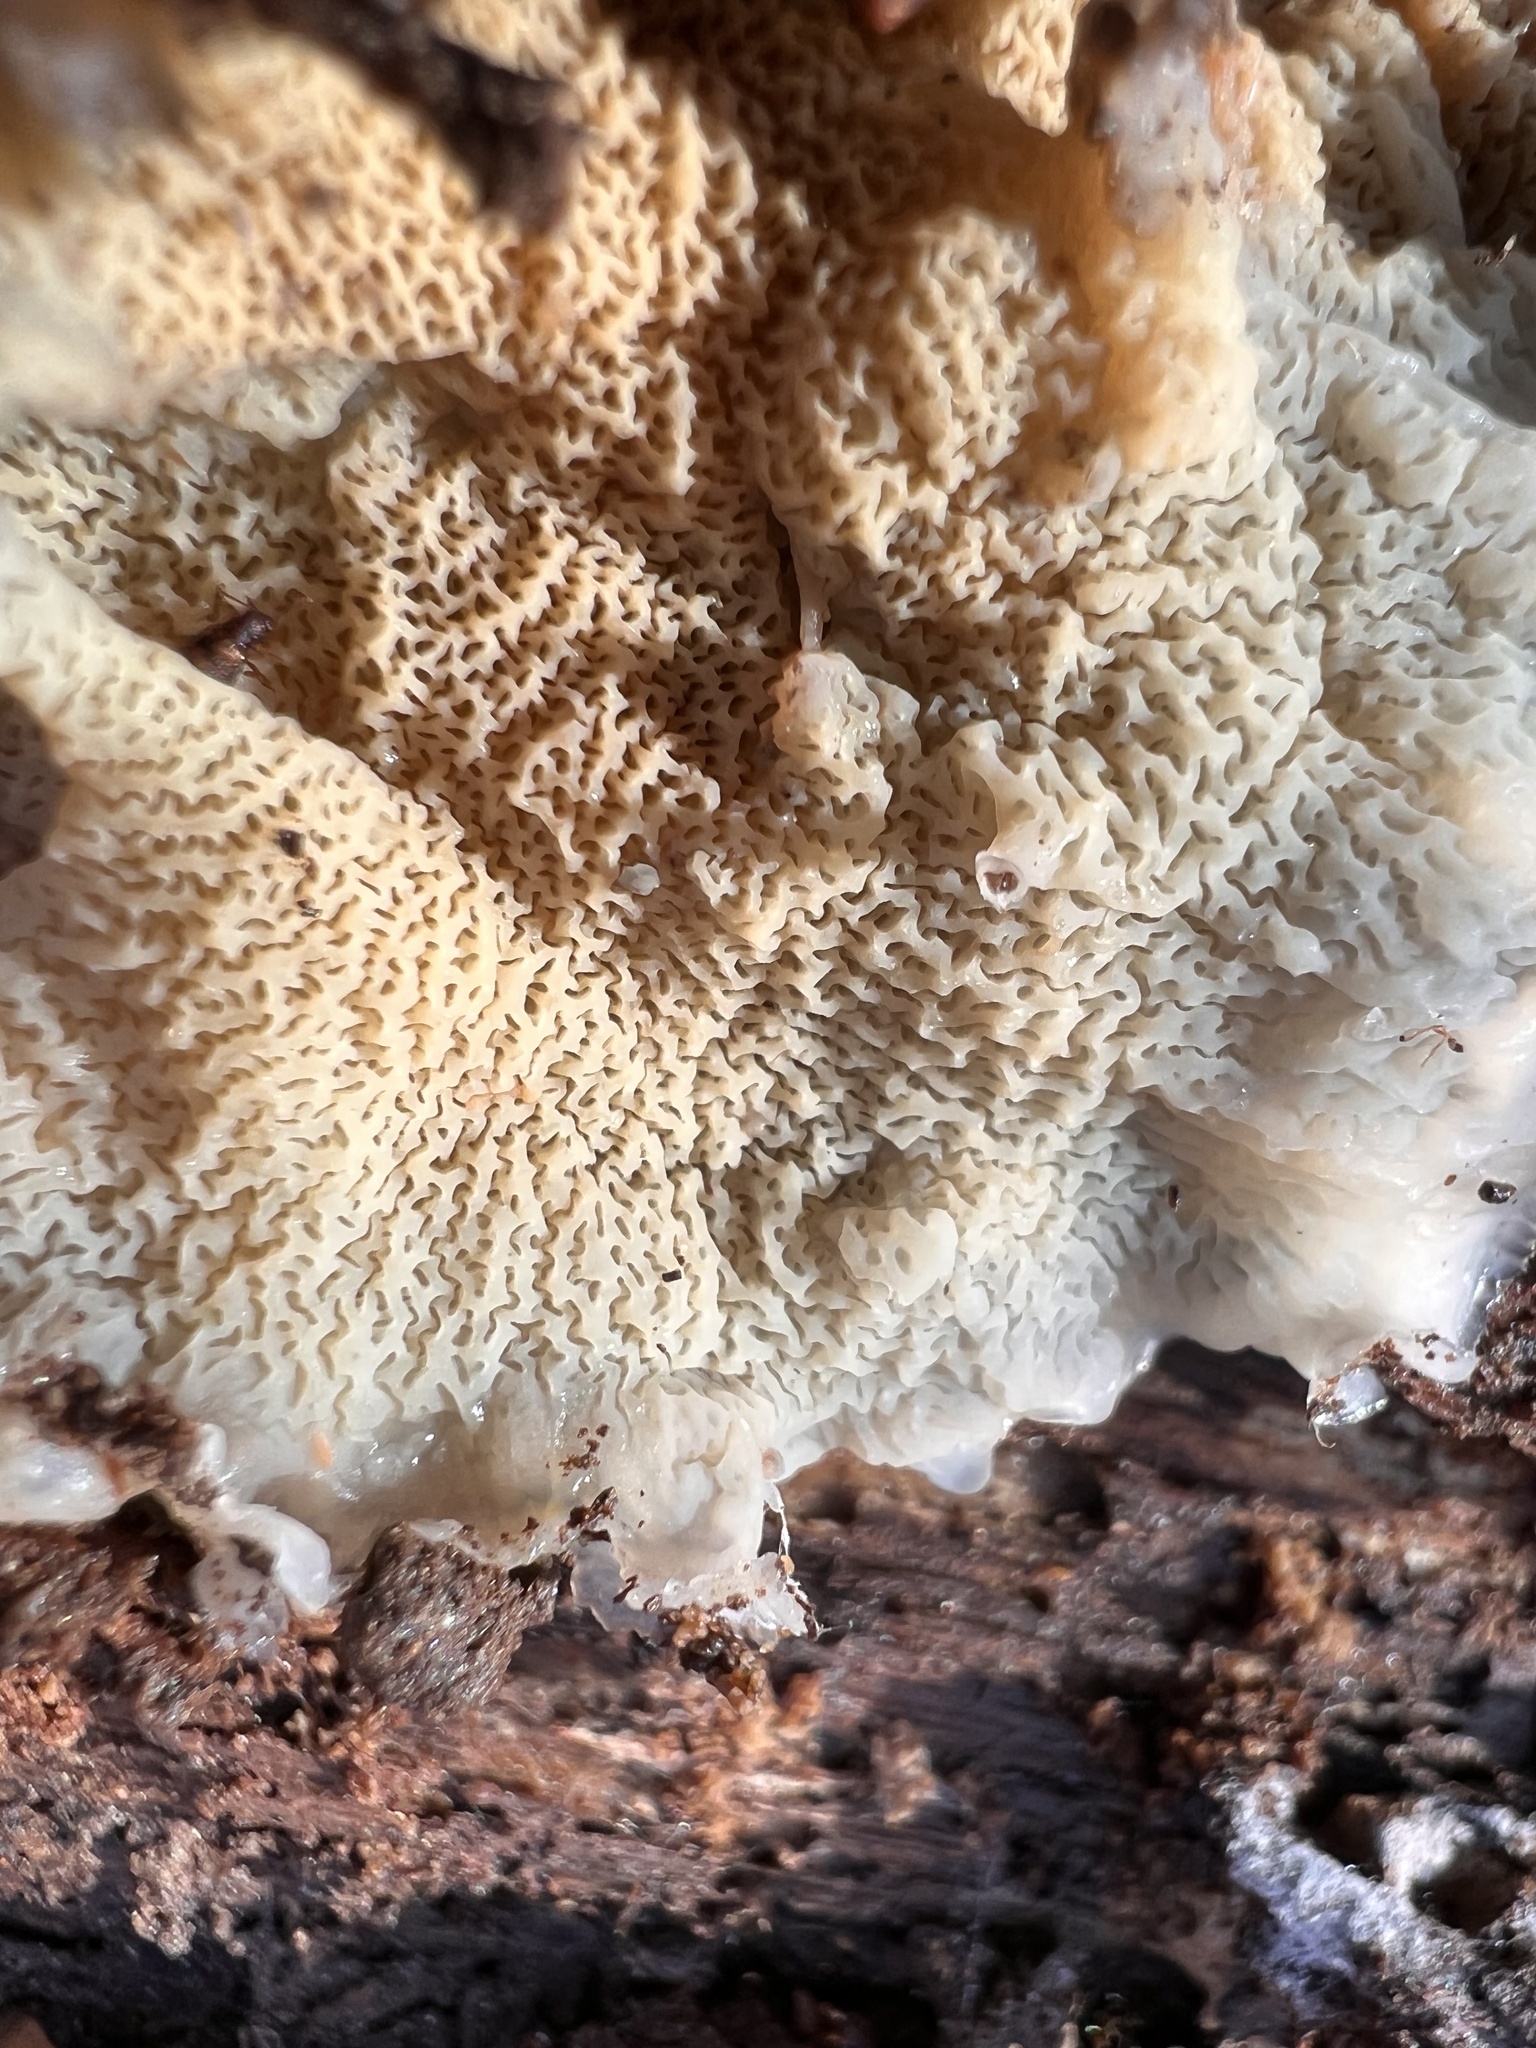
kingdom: Fungi
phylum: Basidiomycota
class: Agaricomycetes
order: Polyporales
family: Meruliaceae
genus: Phlebia
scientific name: Phlebia tremellosa
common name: Jelly rot
